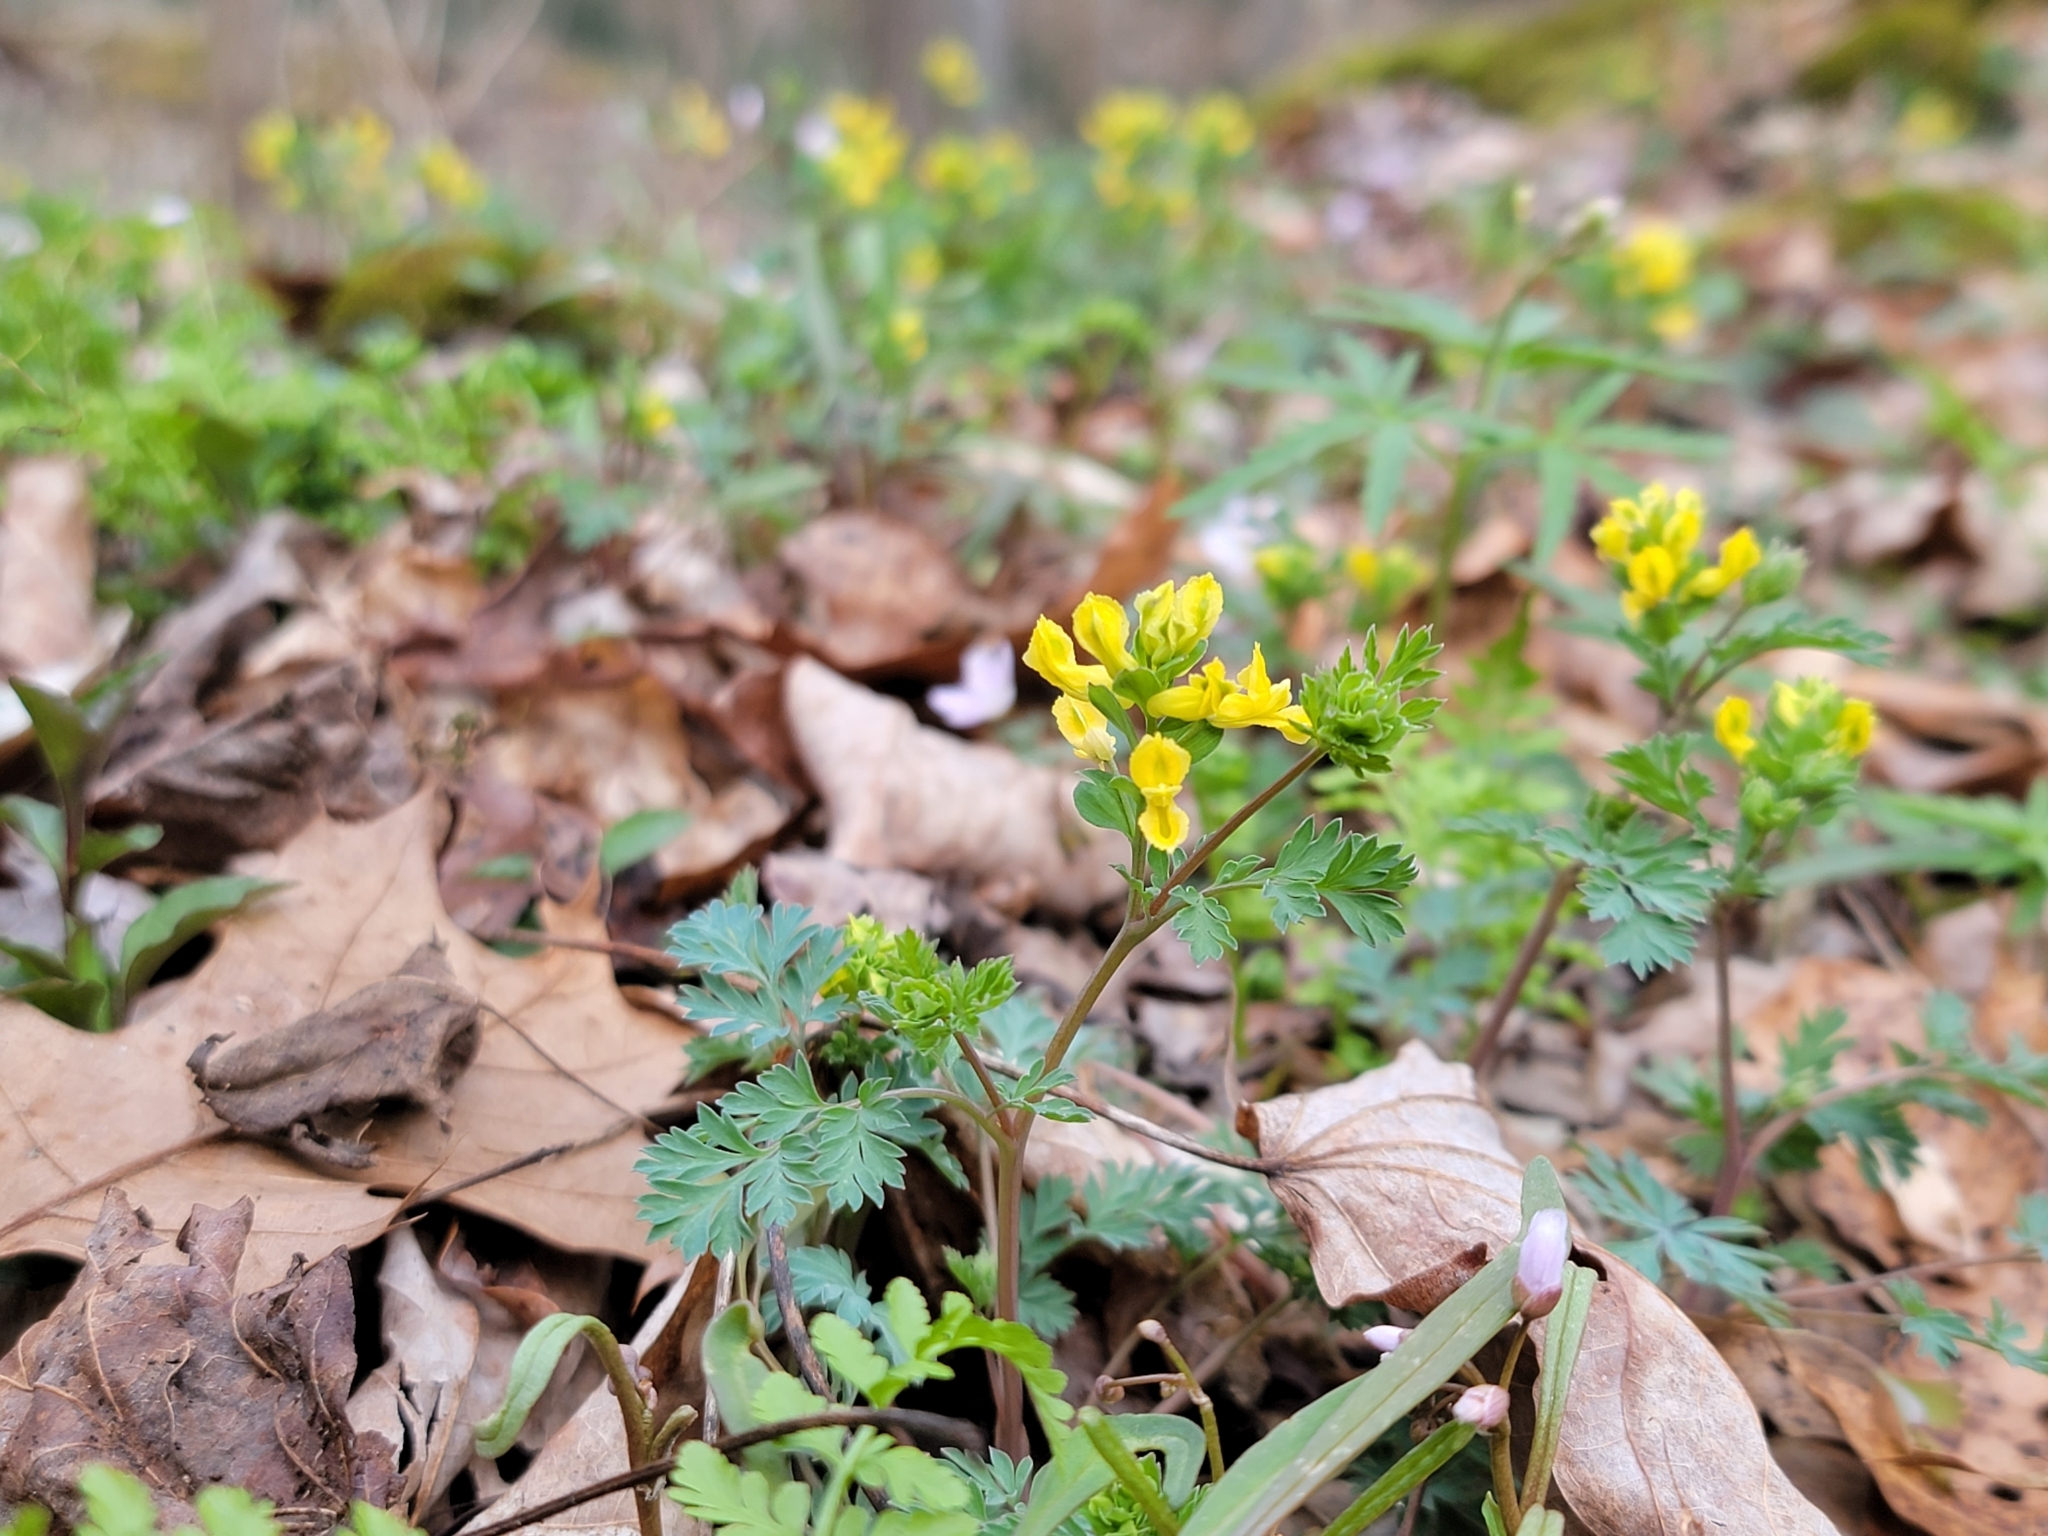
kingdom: Plantae
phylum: Tracheophyta
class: Magnoliopsida
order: Ranunculales
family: Papaveraceae
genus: Corydalis
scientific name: Corydalis flavula
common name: Yellow corydalis
